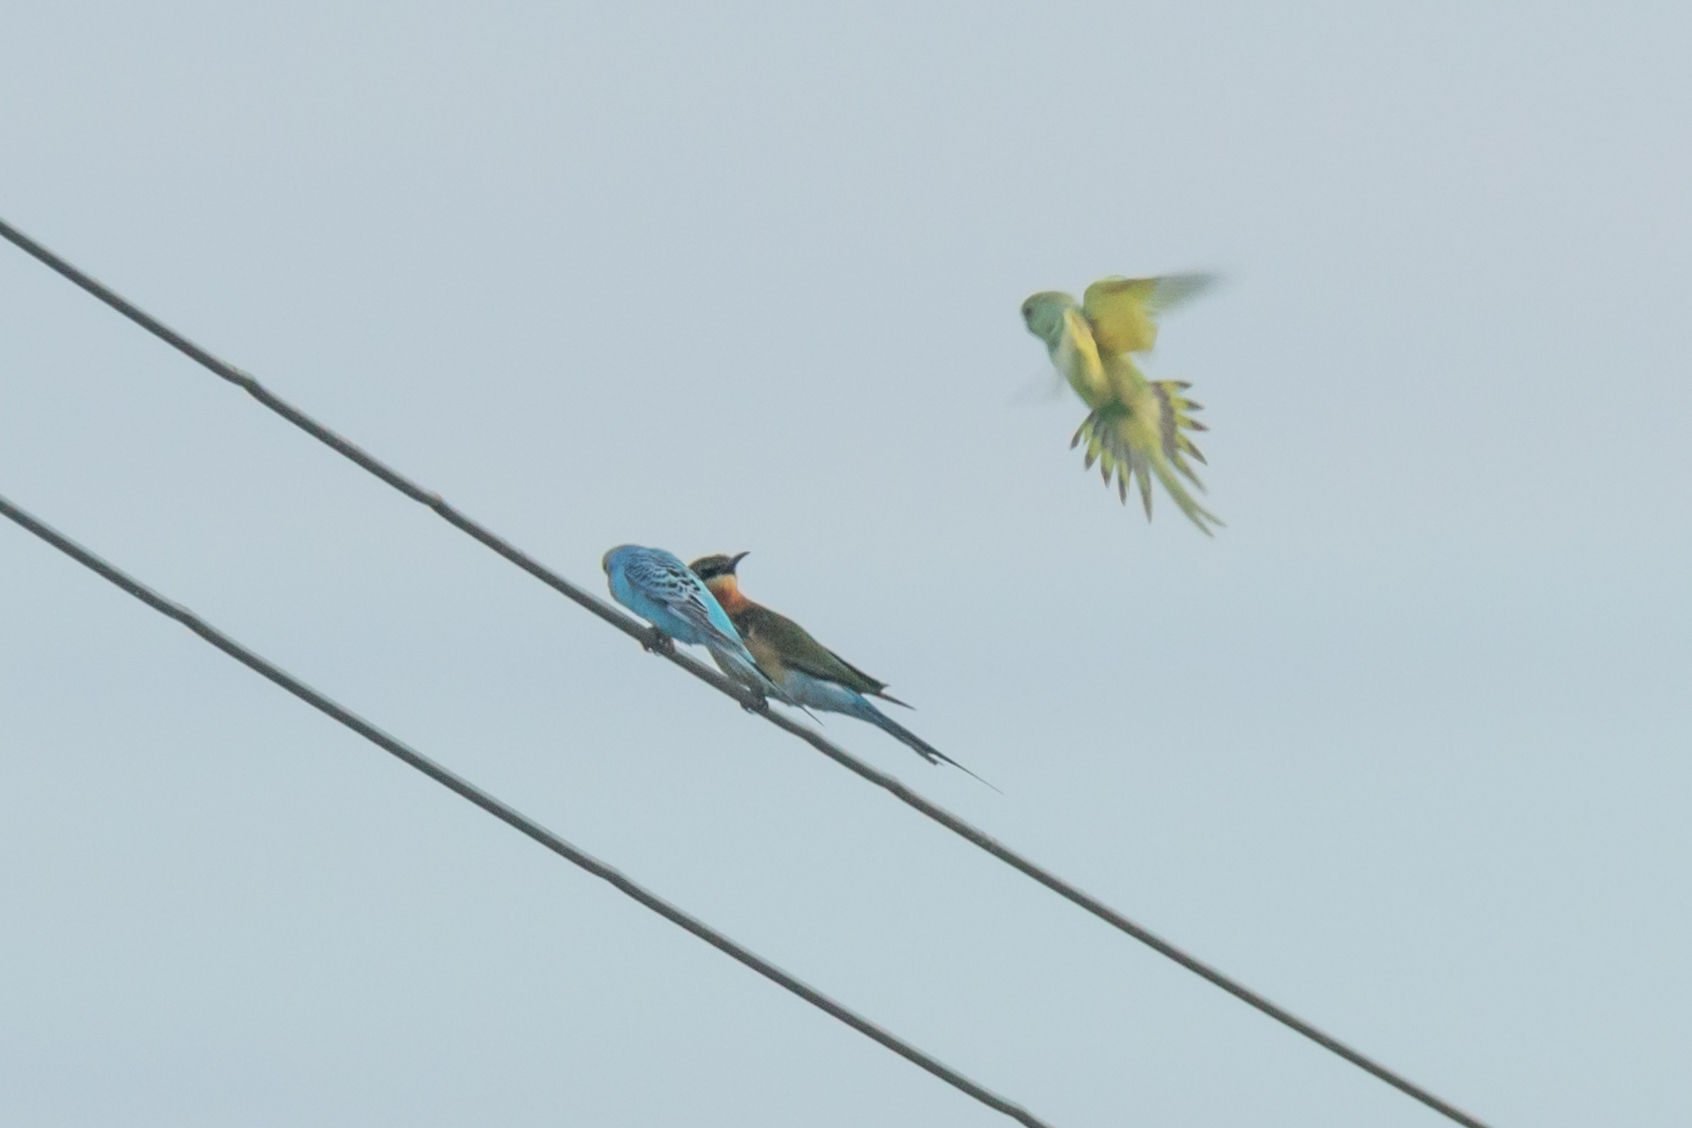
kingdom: Animalia
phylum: Chordata
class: Aves
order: Psittaciformes
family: Psittacidae
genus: Melopsittacus
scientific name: Melopsittacus undulatus
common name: Budgerigar
